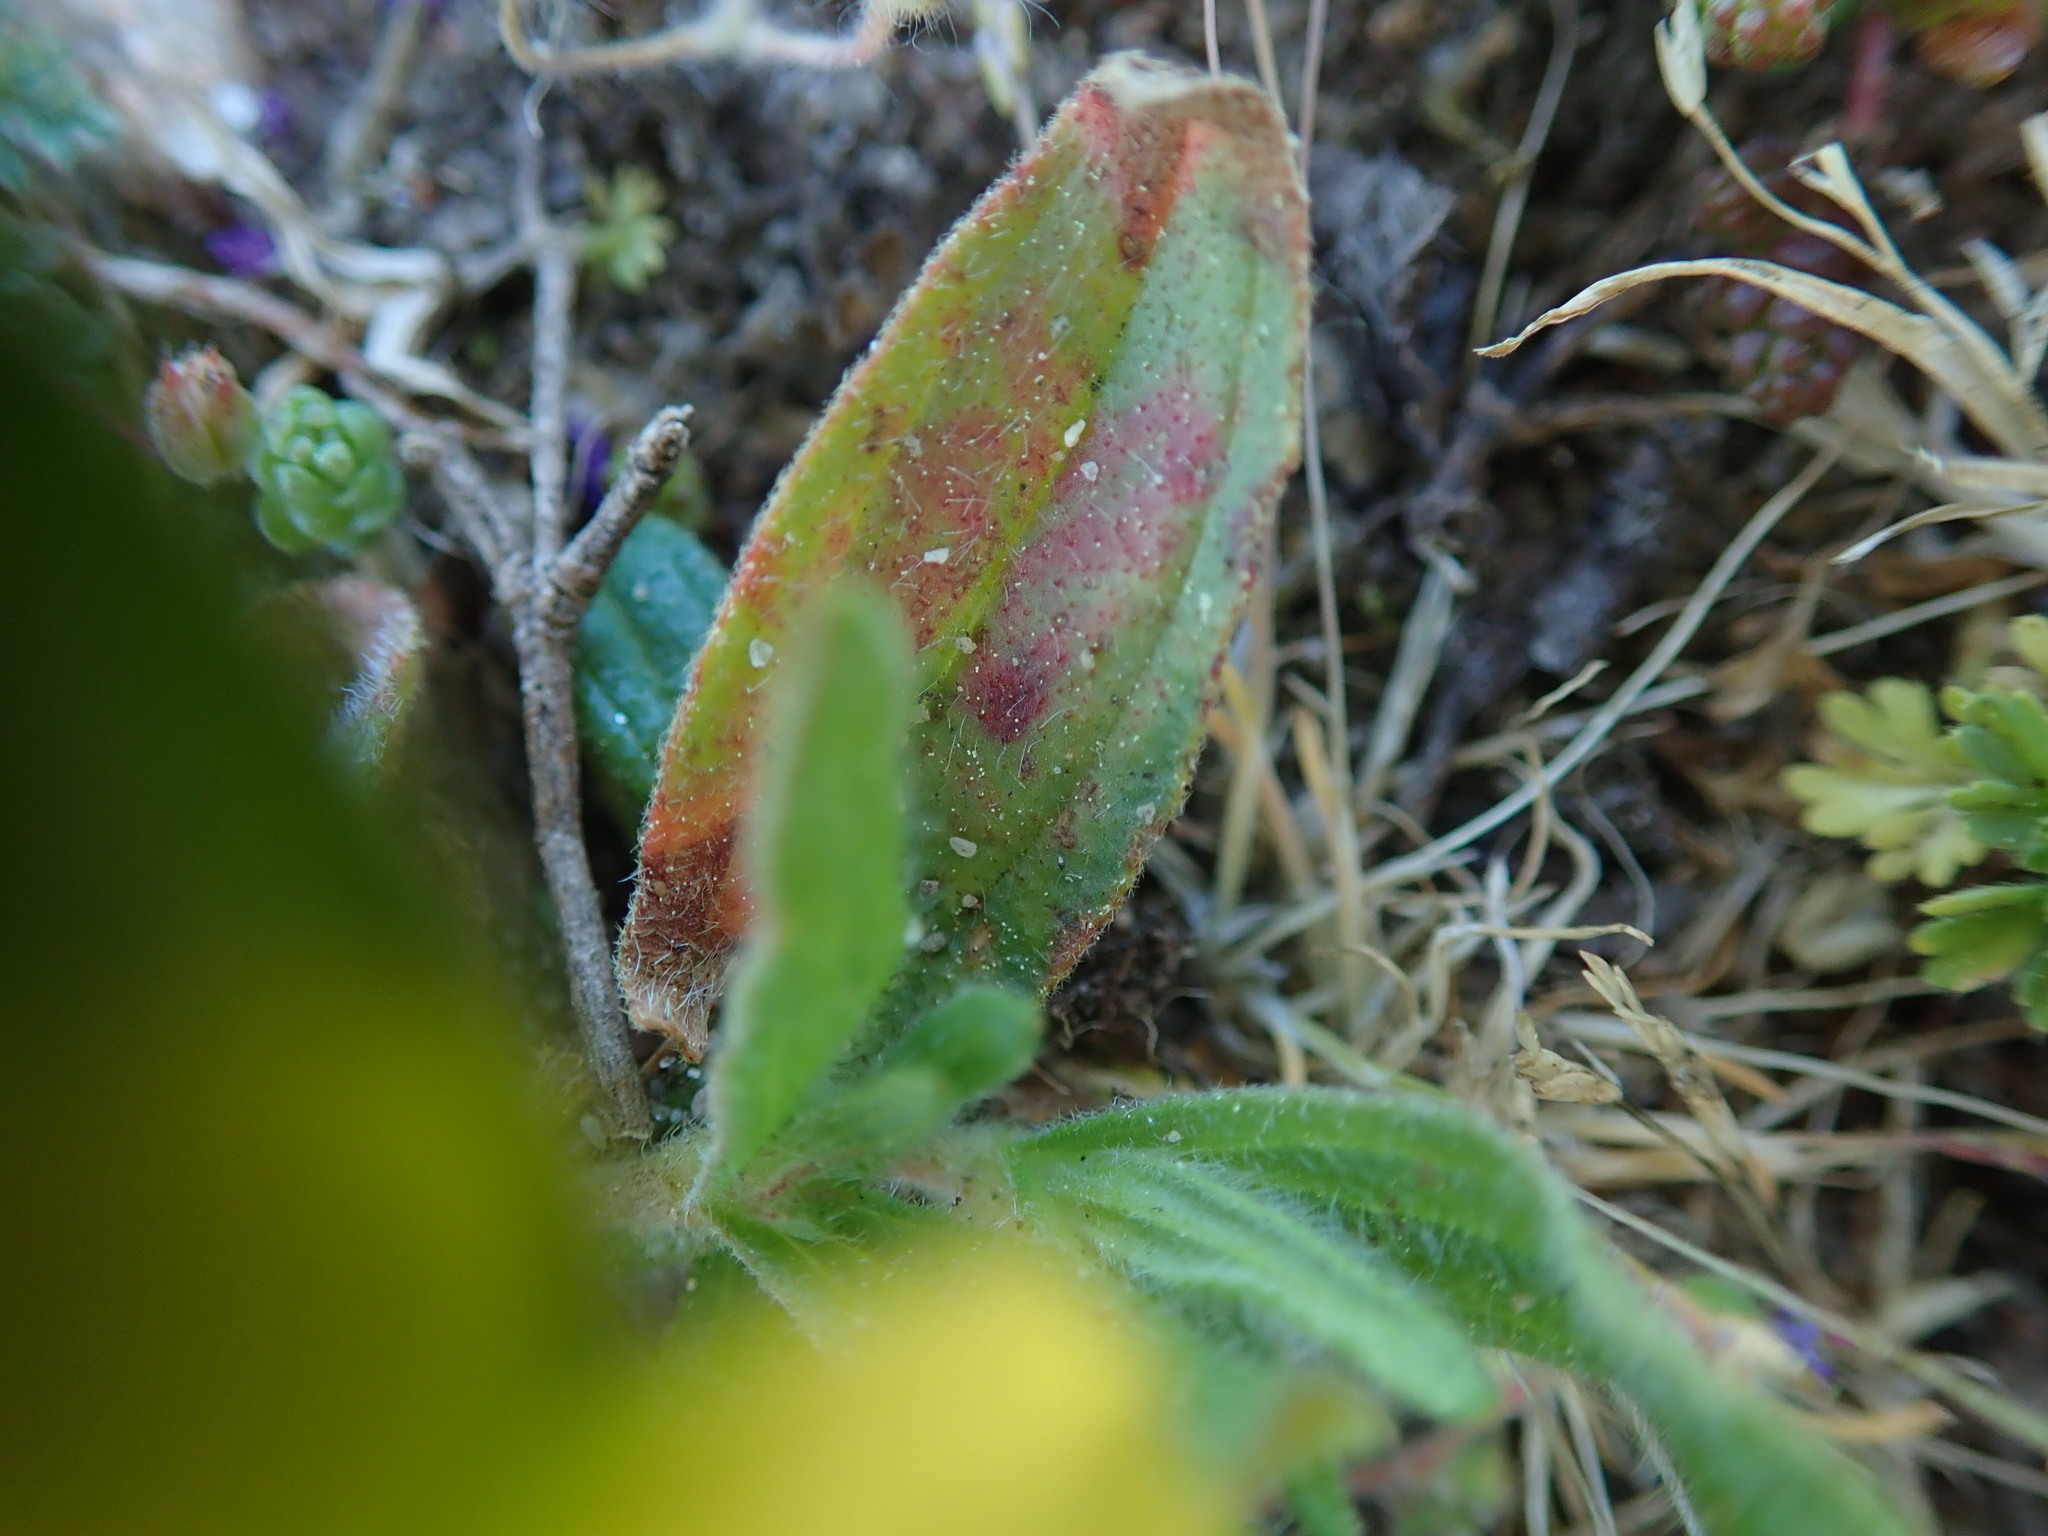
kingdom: Plantae
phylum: Tracheophyta
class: Magnoliopsida
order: Malvales
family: Cistaceae
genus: Tuberaria
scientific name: Tuberaria guttata
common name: Spotted rock-rose
